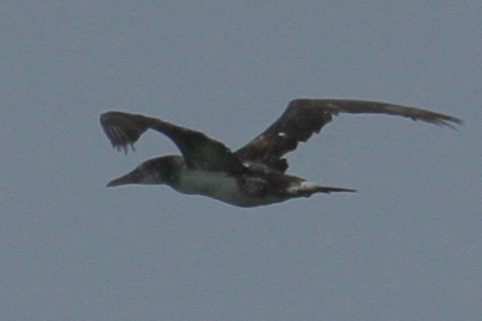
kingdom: Animalia
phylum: Chordata
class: Aves
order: Suliformes
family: Sulidae
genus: Morus
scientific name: Morus bassanus
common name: Northern gannet
